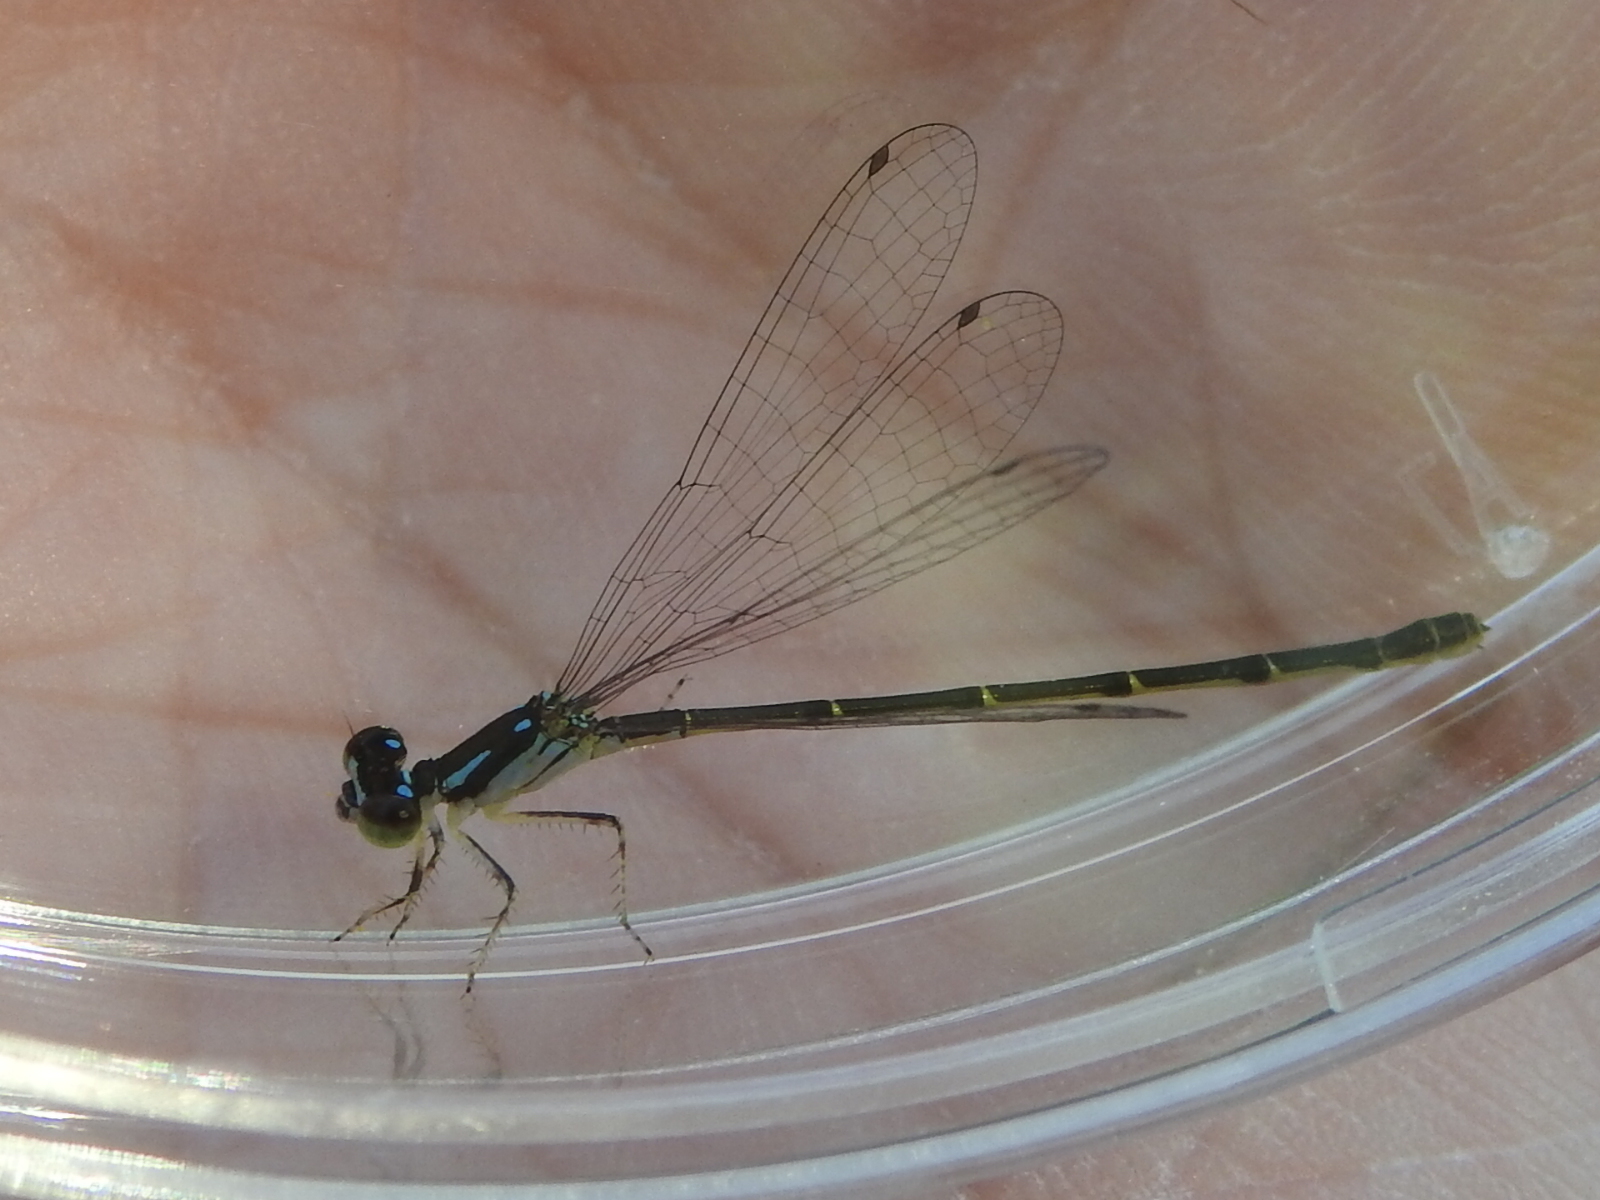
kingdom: Animalia
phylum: Arthropoda
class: Insecta
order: Odonata
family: Coenagrionidae
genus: Ischnura
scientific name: Ischnura posita
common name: Fragile forktail
